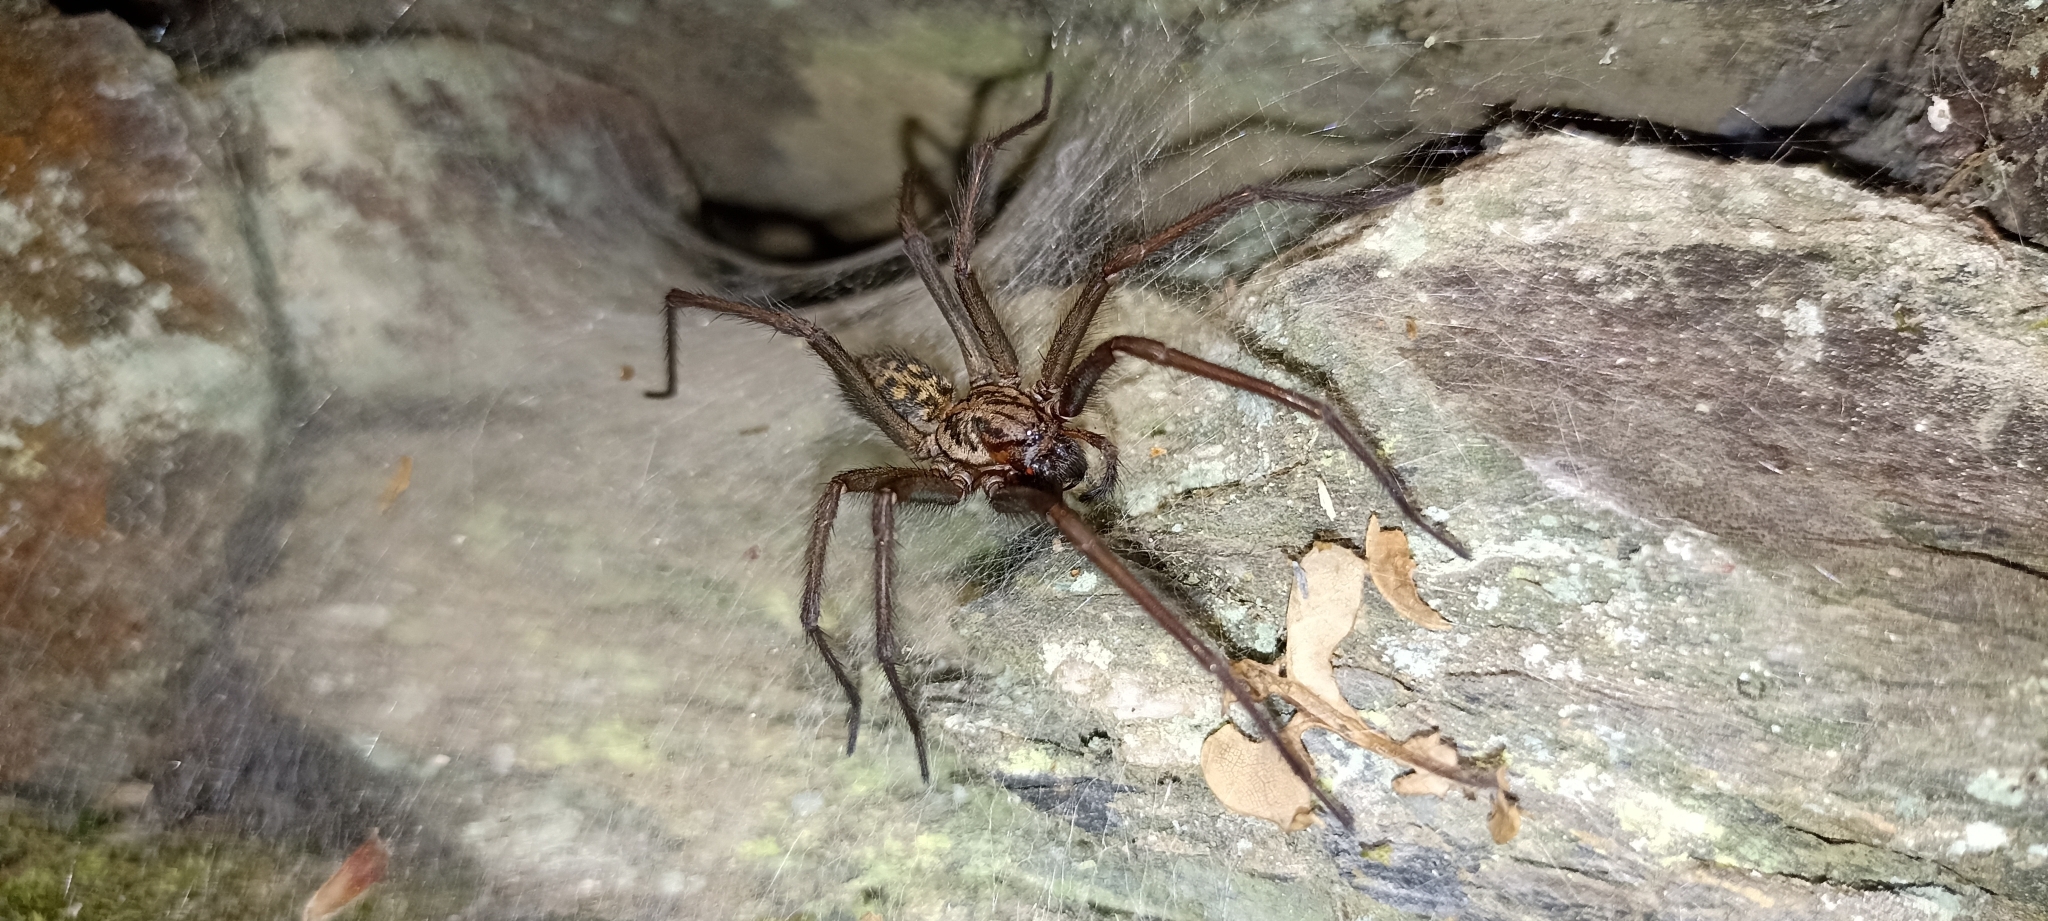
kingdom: Animalia
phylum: Arthropoda
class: Arachnida
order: Araneae
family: Agelenidae
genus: Eratigena
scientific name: Eratigena
